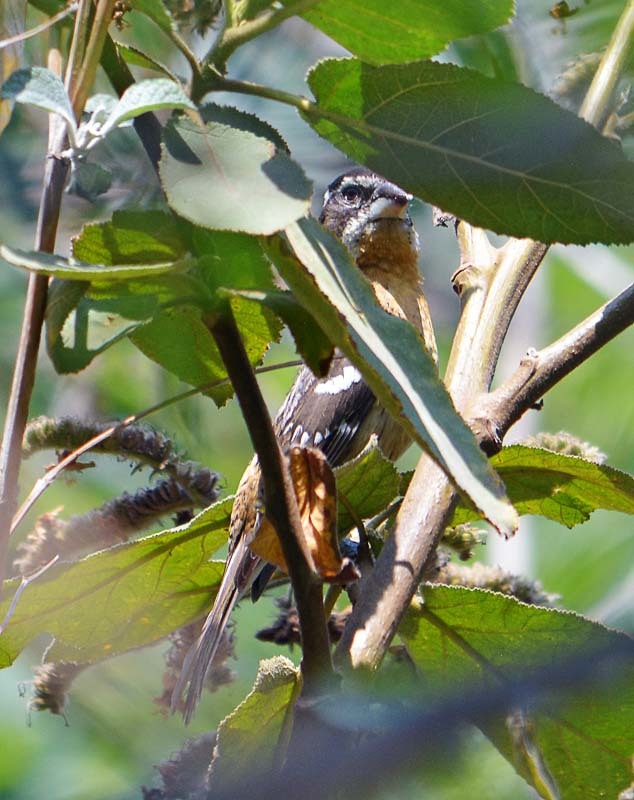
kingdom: Animalia
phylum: Chordata
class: Aves
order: Passeriformes
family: Cardinalidae
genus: Pheucticus
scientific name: Pheucticus melanocephalus
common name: Black-headed grosbeak
